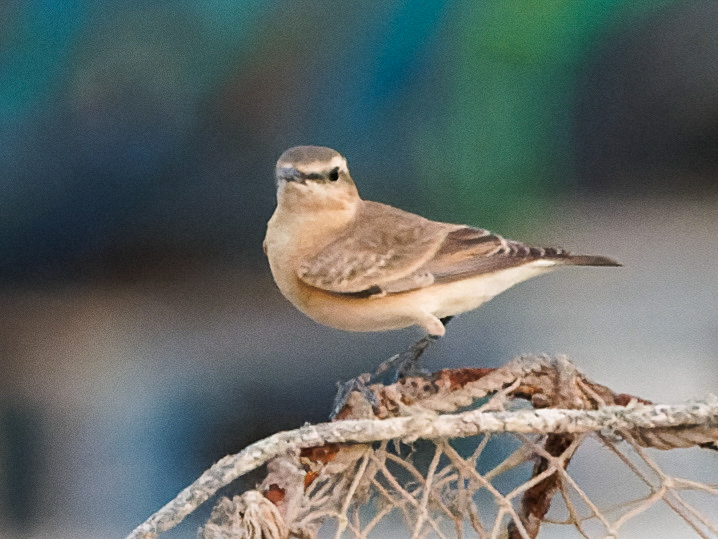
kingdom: Animalia
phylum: Chordata
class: Aves
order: Passeriformes
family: Muscicapidae
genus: Oenanthe
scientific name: Oenanthe isabellina
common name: Isabelline wheatear
